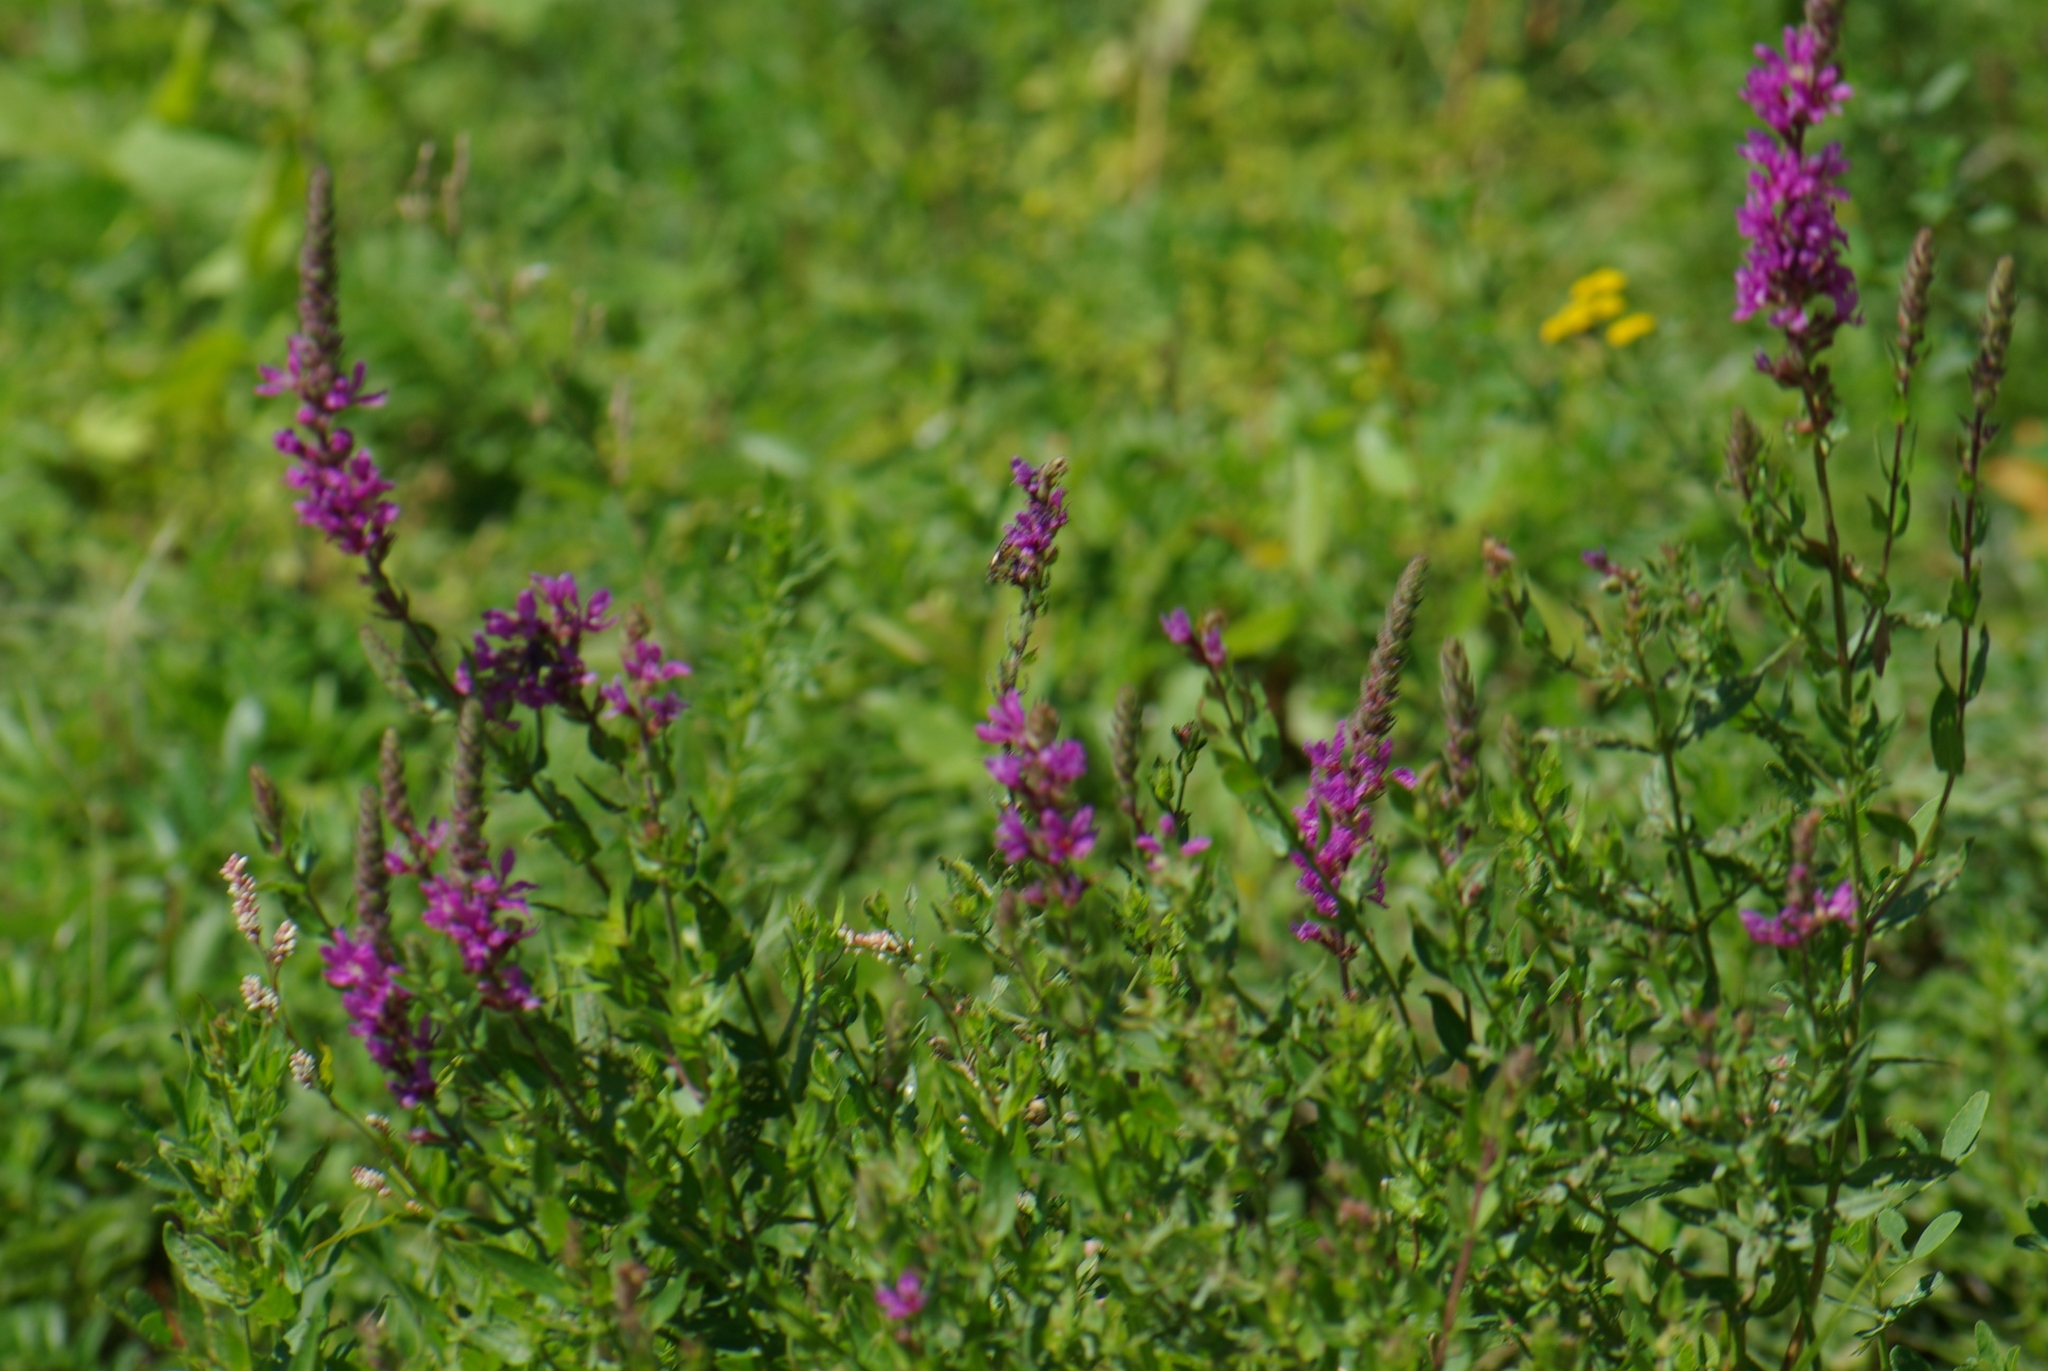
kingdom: Plantae
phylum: Tracheophyta
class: Magnoliopsida
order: Myrtales
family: Lythraceae
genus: Lythrum
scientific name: Lythrum salicaria
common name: Purple loosestrife
